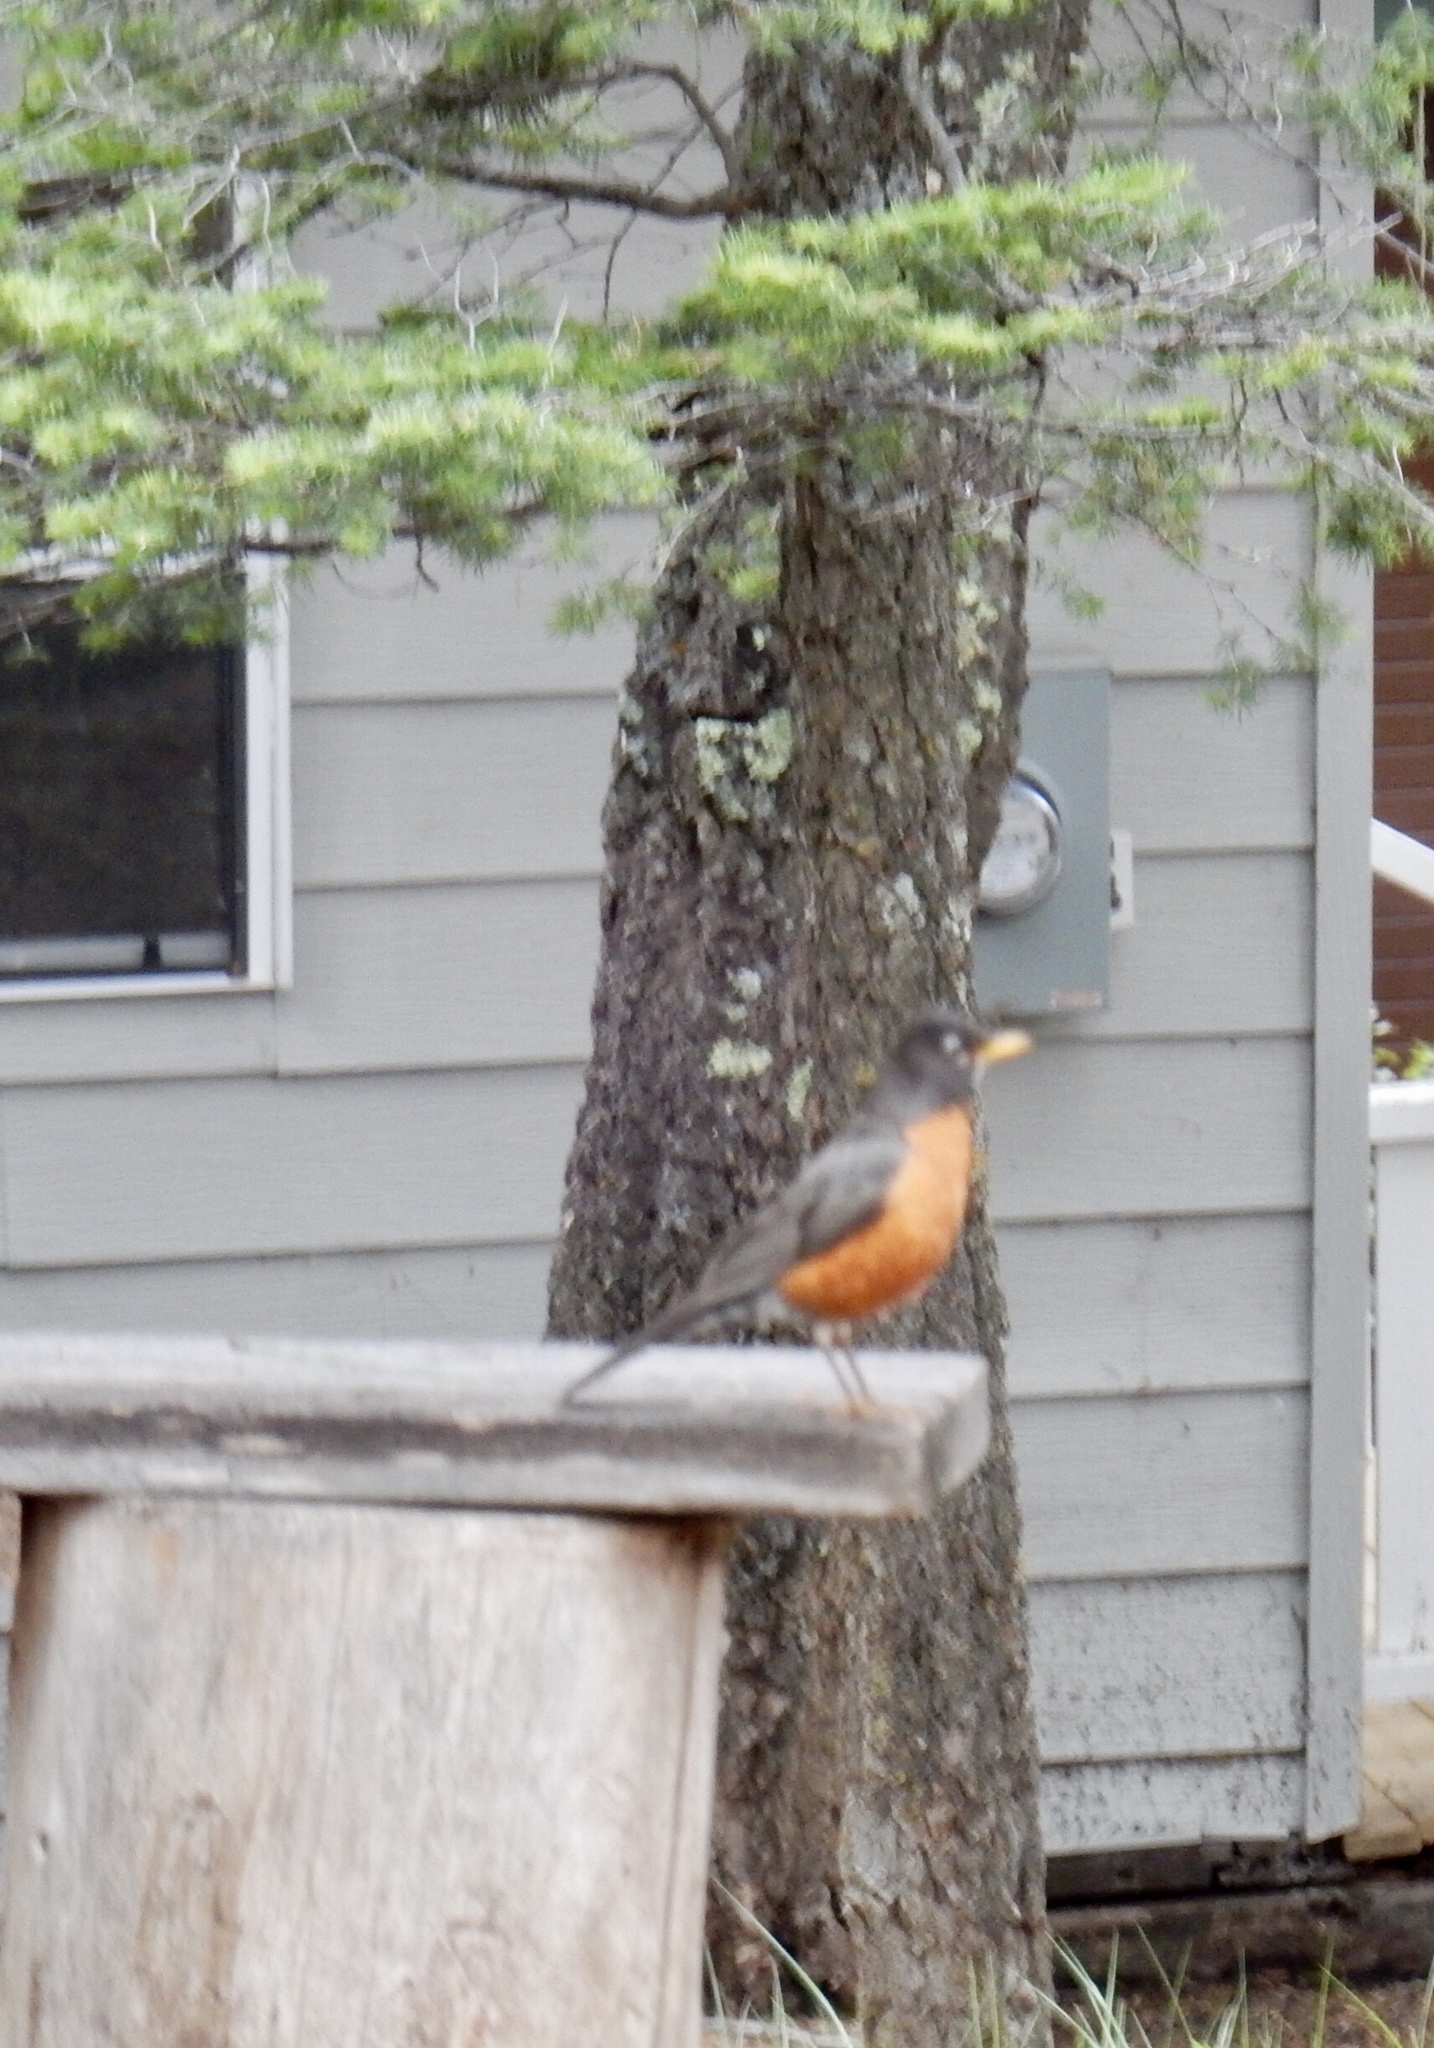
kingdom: Animalia
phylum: Chordata
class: Aves
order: Passeriformes
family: Turdidae
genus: Turdus
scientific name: Turdus migratorius
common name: American robin
